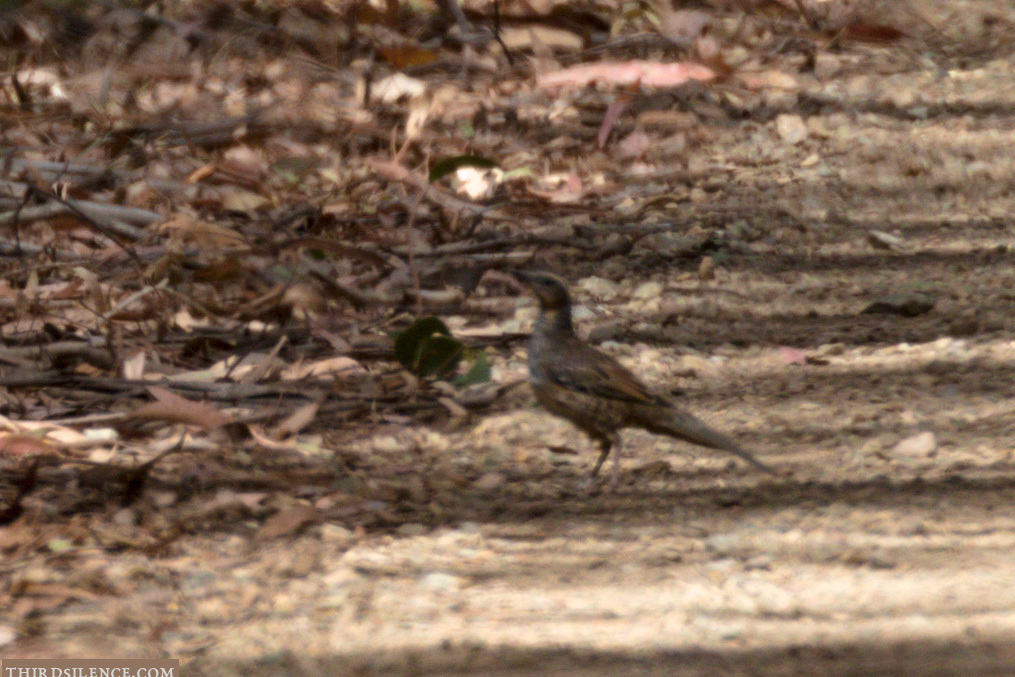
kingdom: Animalia
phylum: Chordata
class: Aves
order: Passeriformes
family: Psophodidae
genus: Cinclosoma
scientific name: Cinclosoma punctatum
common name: Spotted quail-thrush
